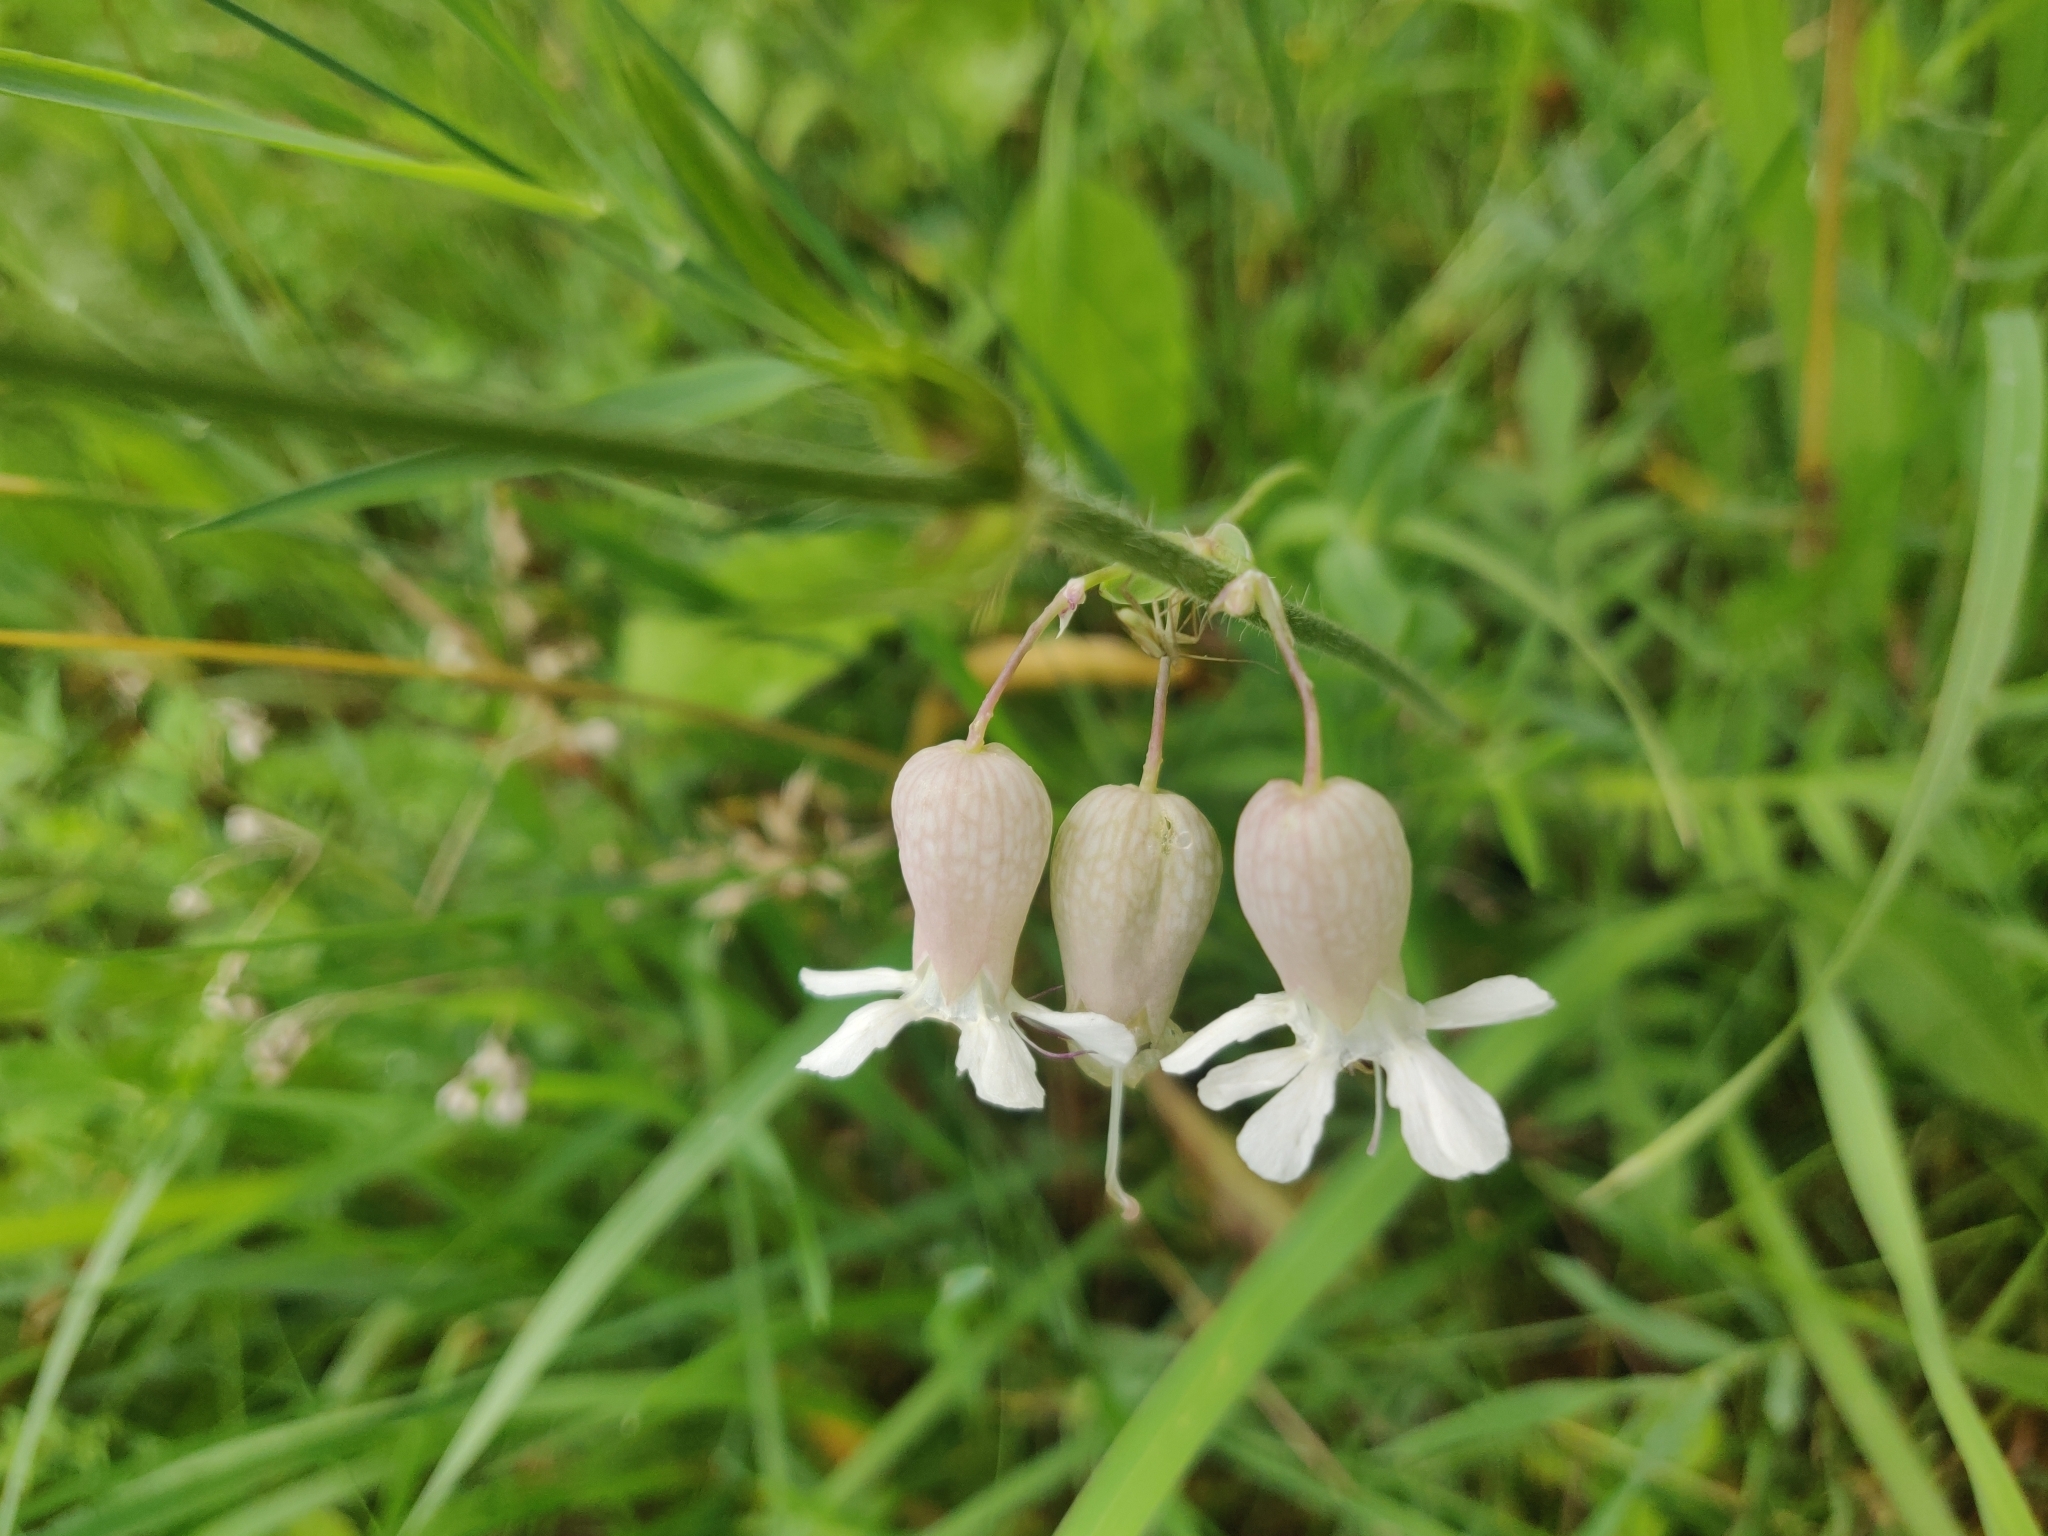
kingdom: Plantae
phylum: Tracheophyta
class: Magnoliopsida
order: Caryophyllales
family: Caryophyllaceae
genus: Silene
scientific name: Silene vulgaris
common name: Bladder campion
